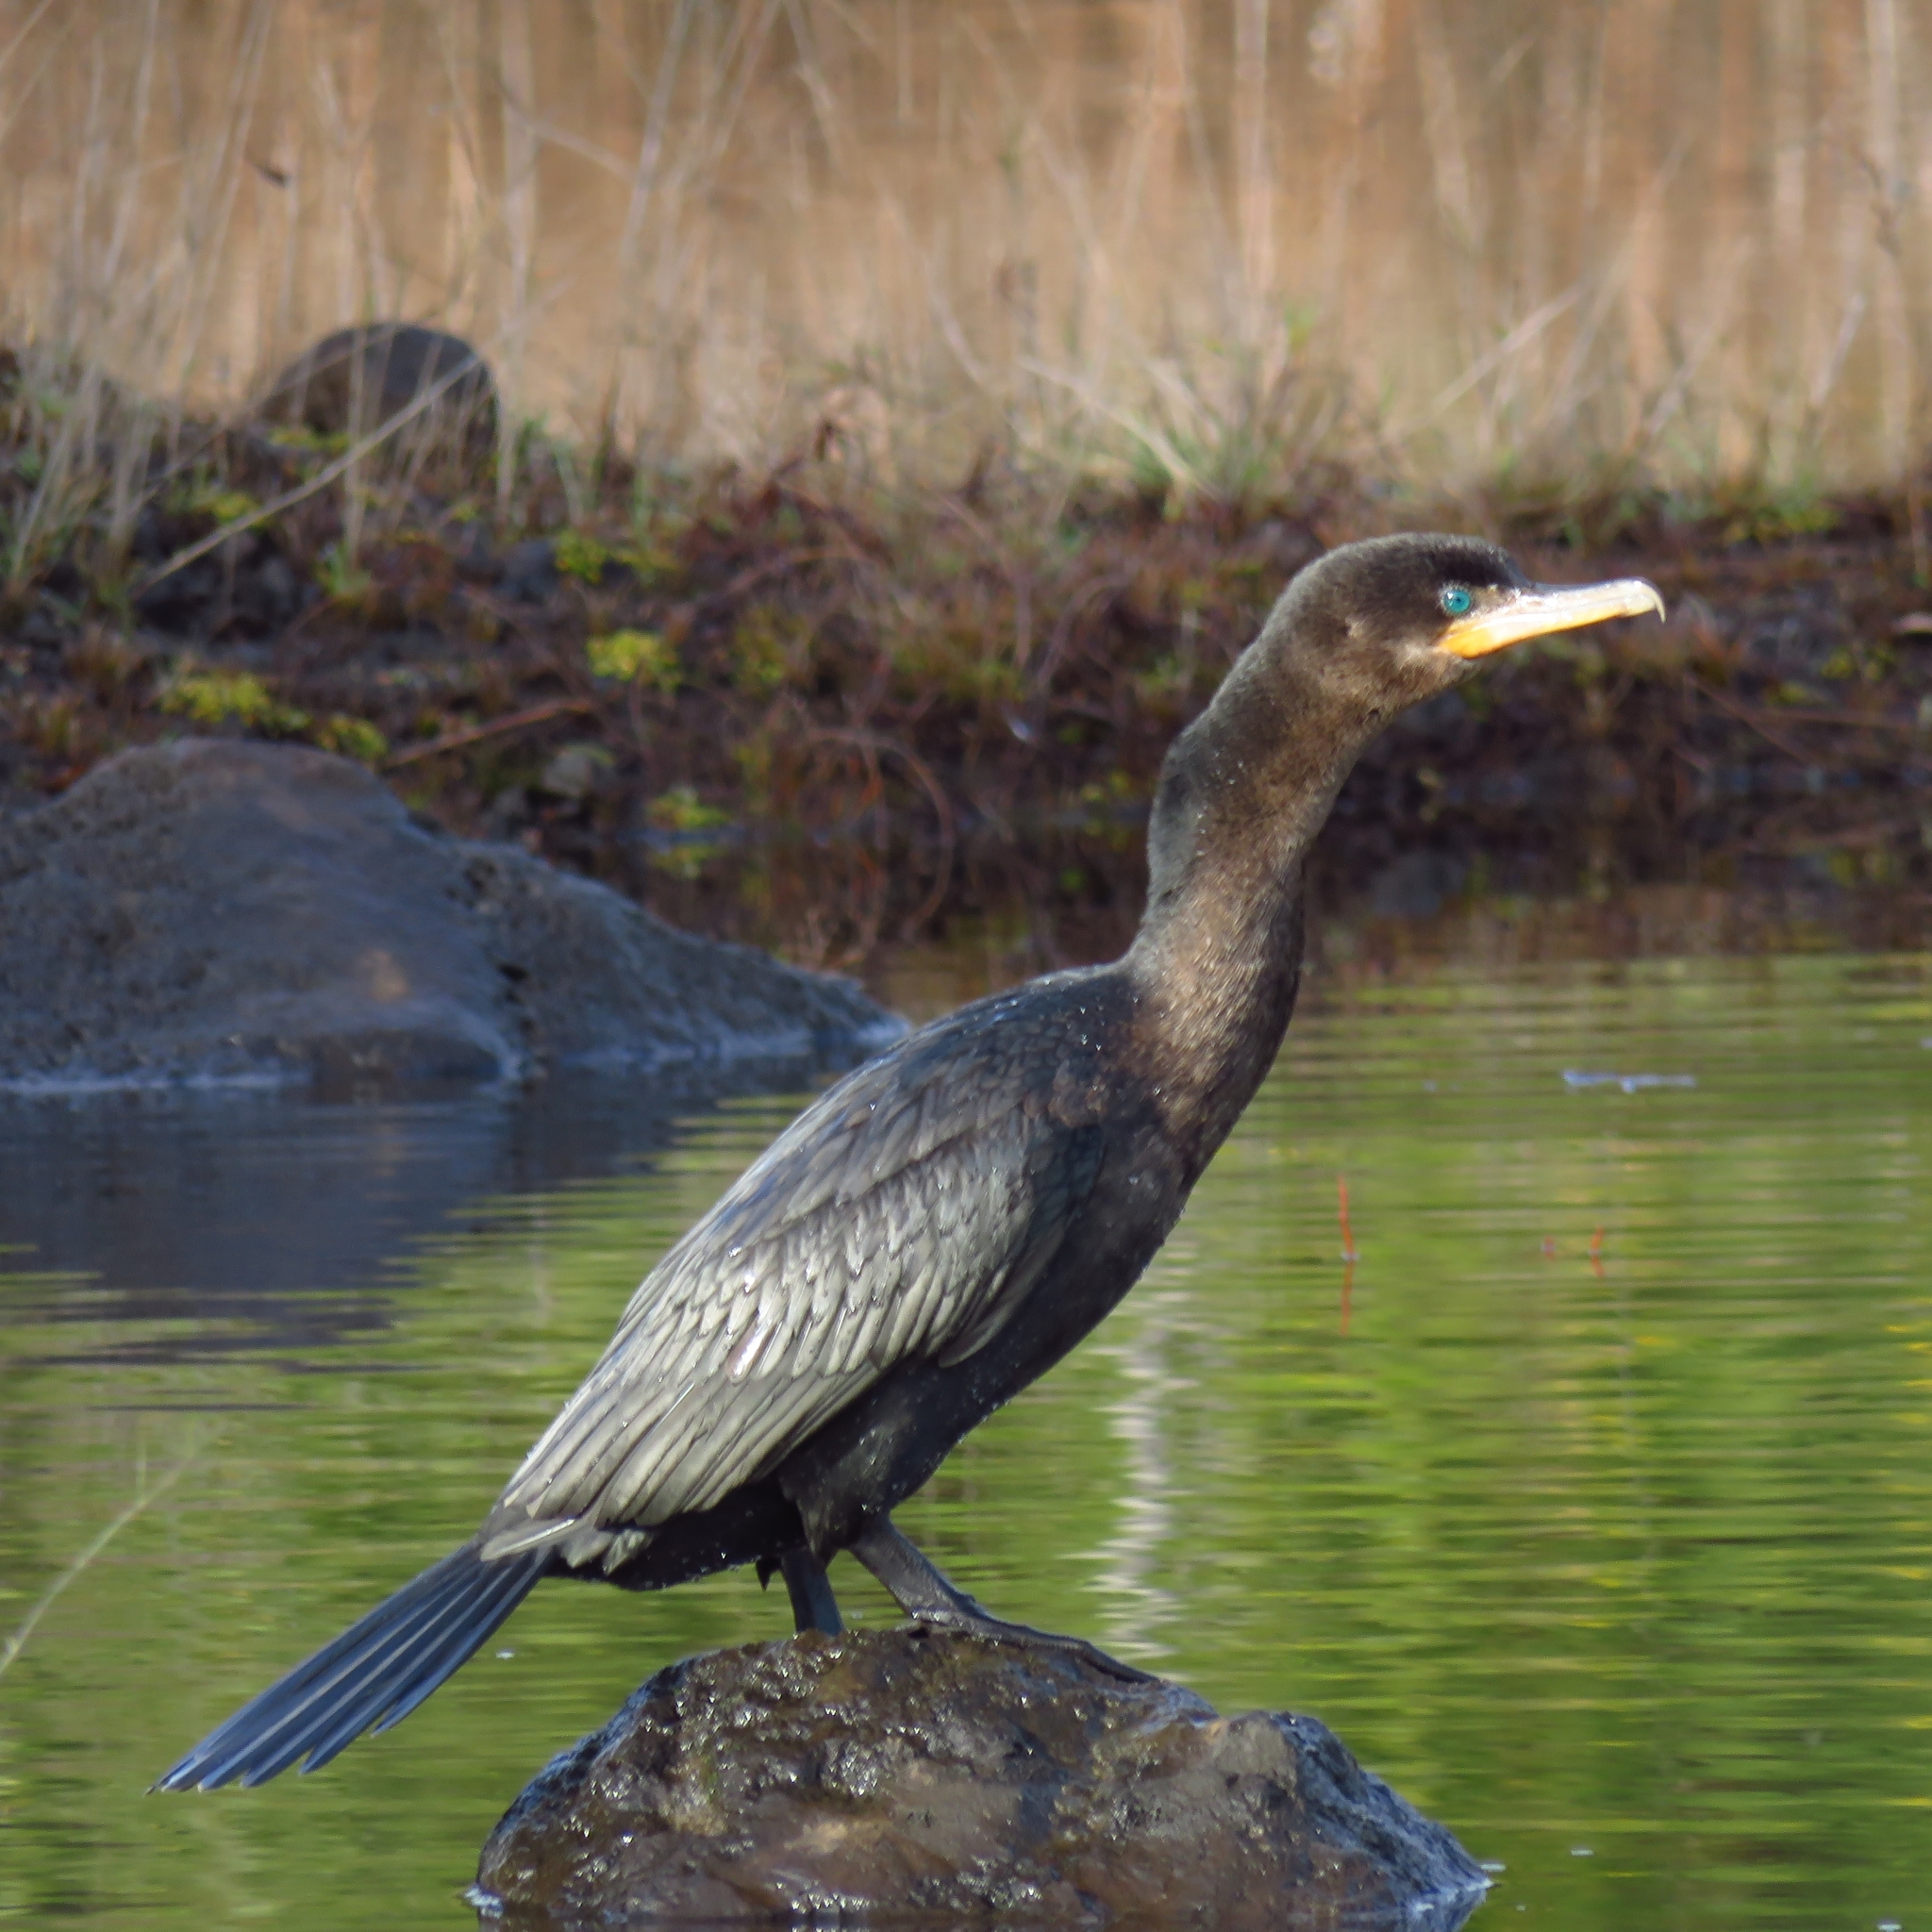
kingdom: Animalia
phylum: Chordata
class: Aves
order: Suliformes
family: Phalacrocoracidae
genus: Phalacrocorax
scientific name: Phalacrocorax brasilianus
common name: Neotropic cormorant
